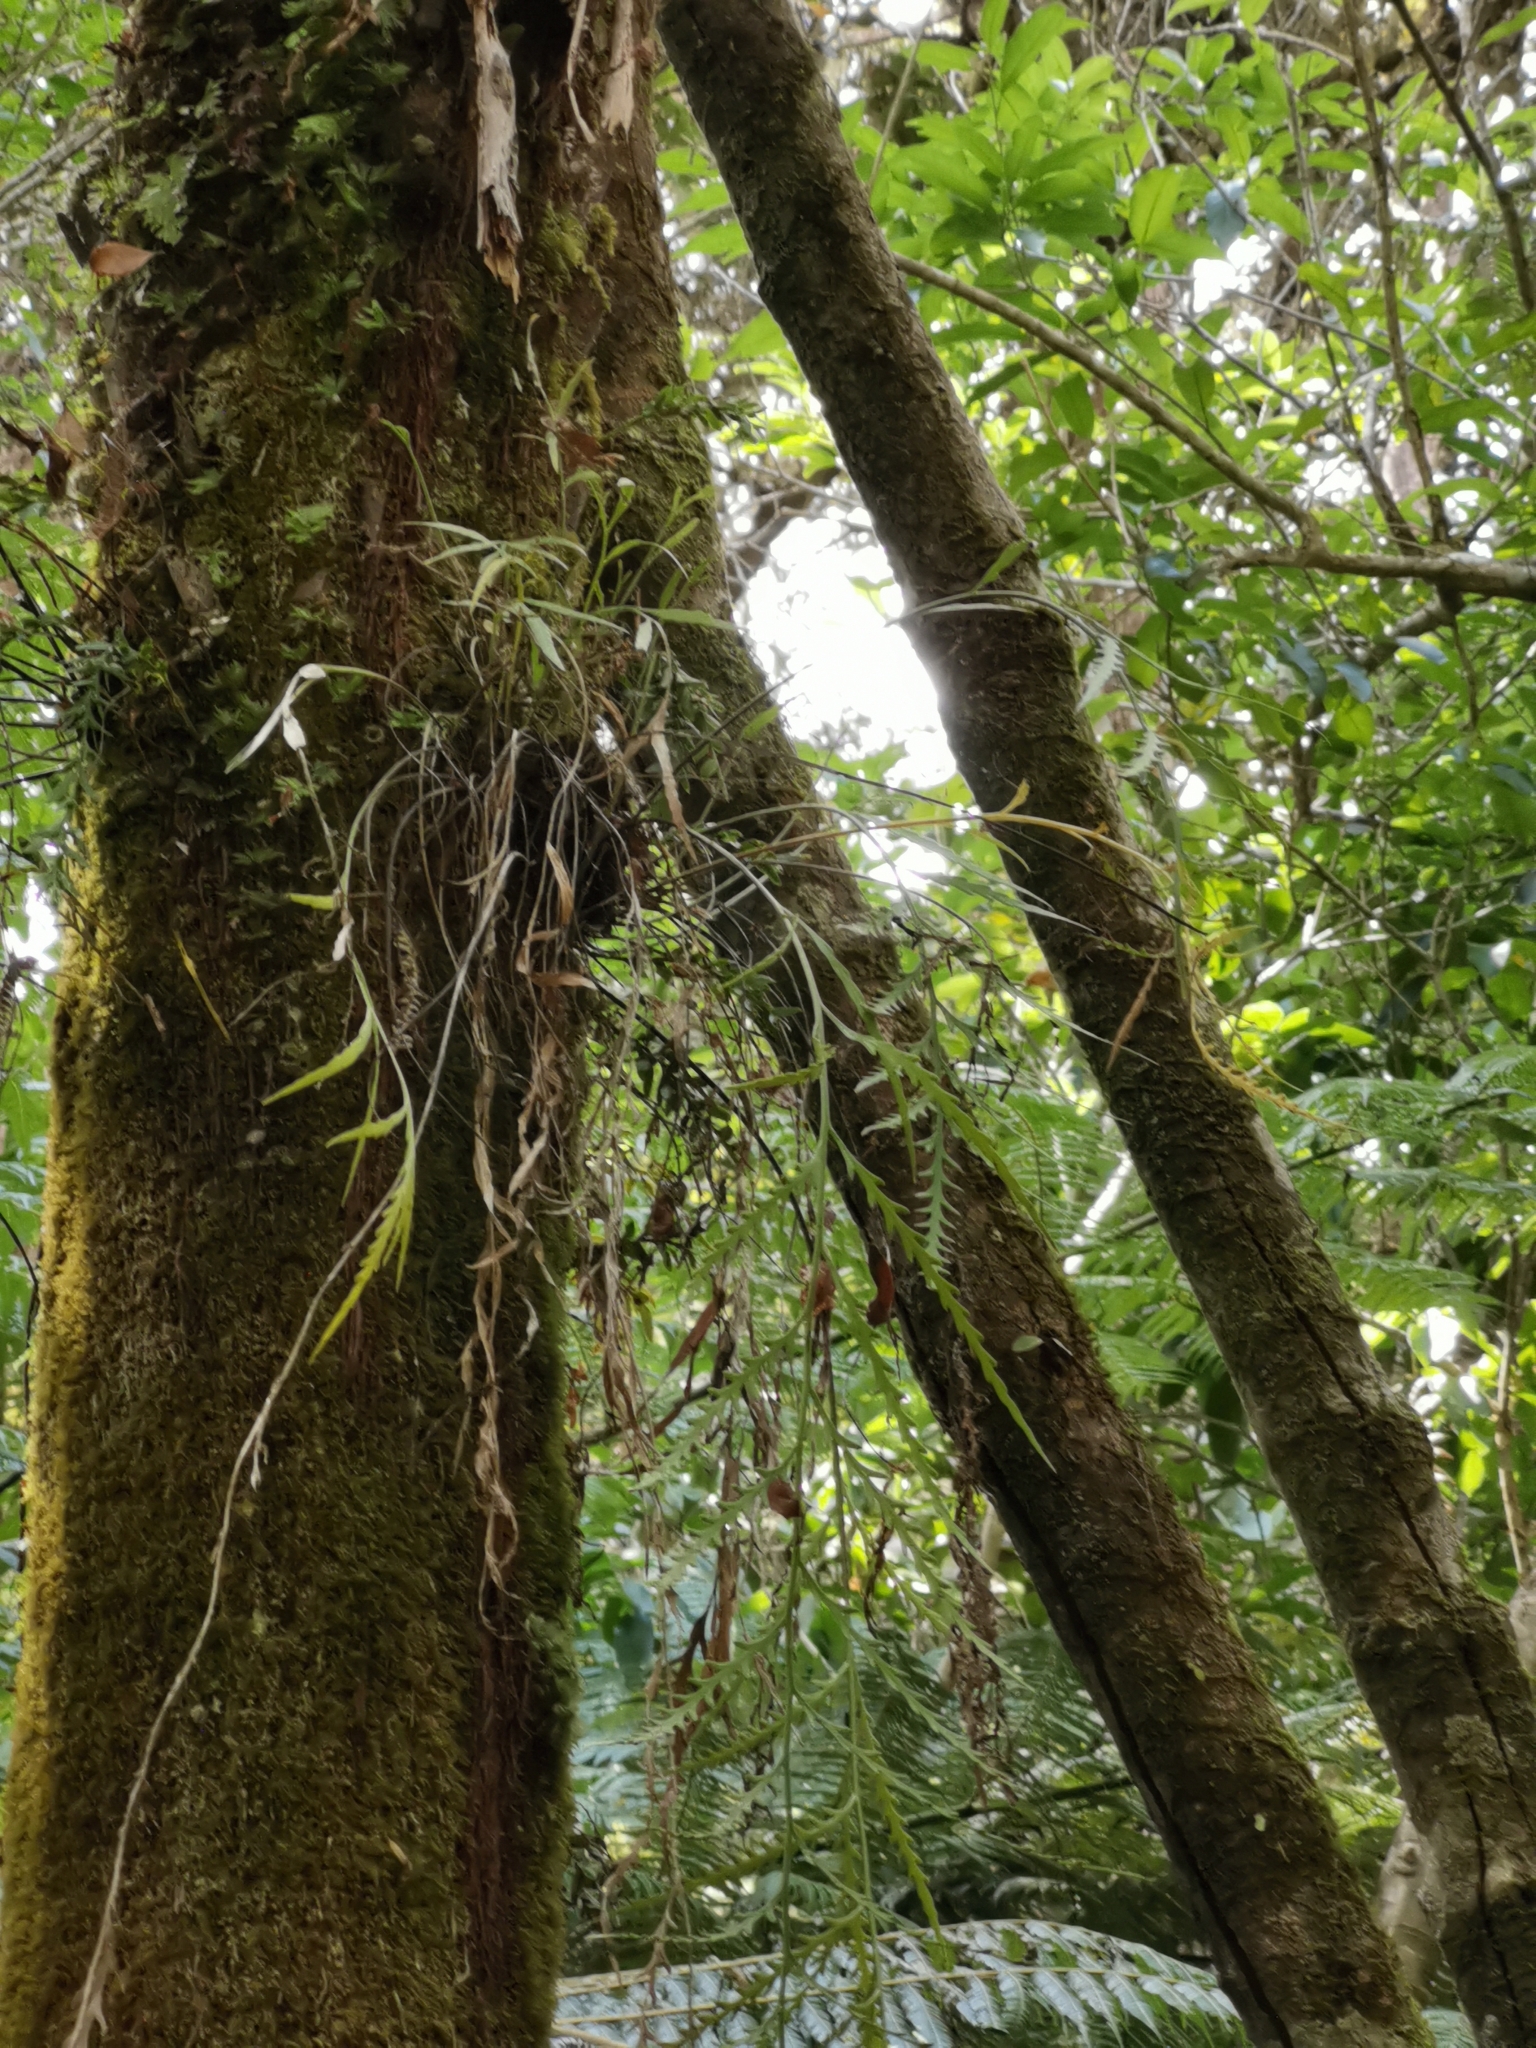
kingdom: Plantae
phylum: Tracheophyta
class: Polypodiopsida
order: Polypodiales
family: Aspleniaceae
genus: Asplenium
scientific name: Asplenium flaccidum
